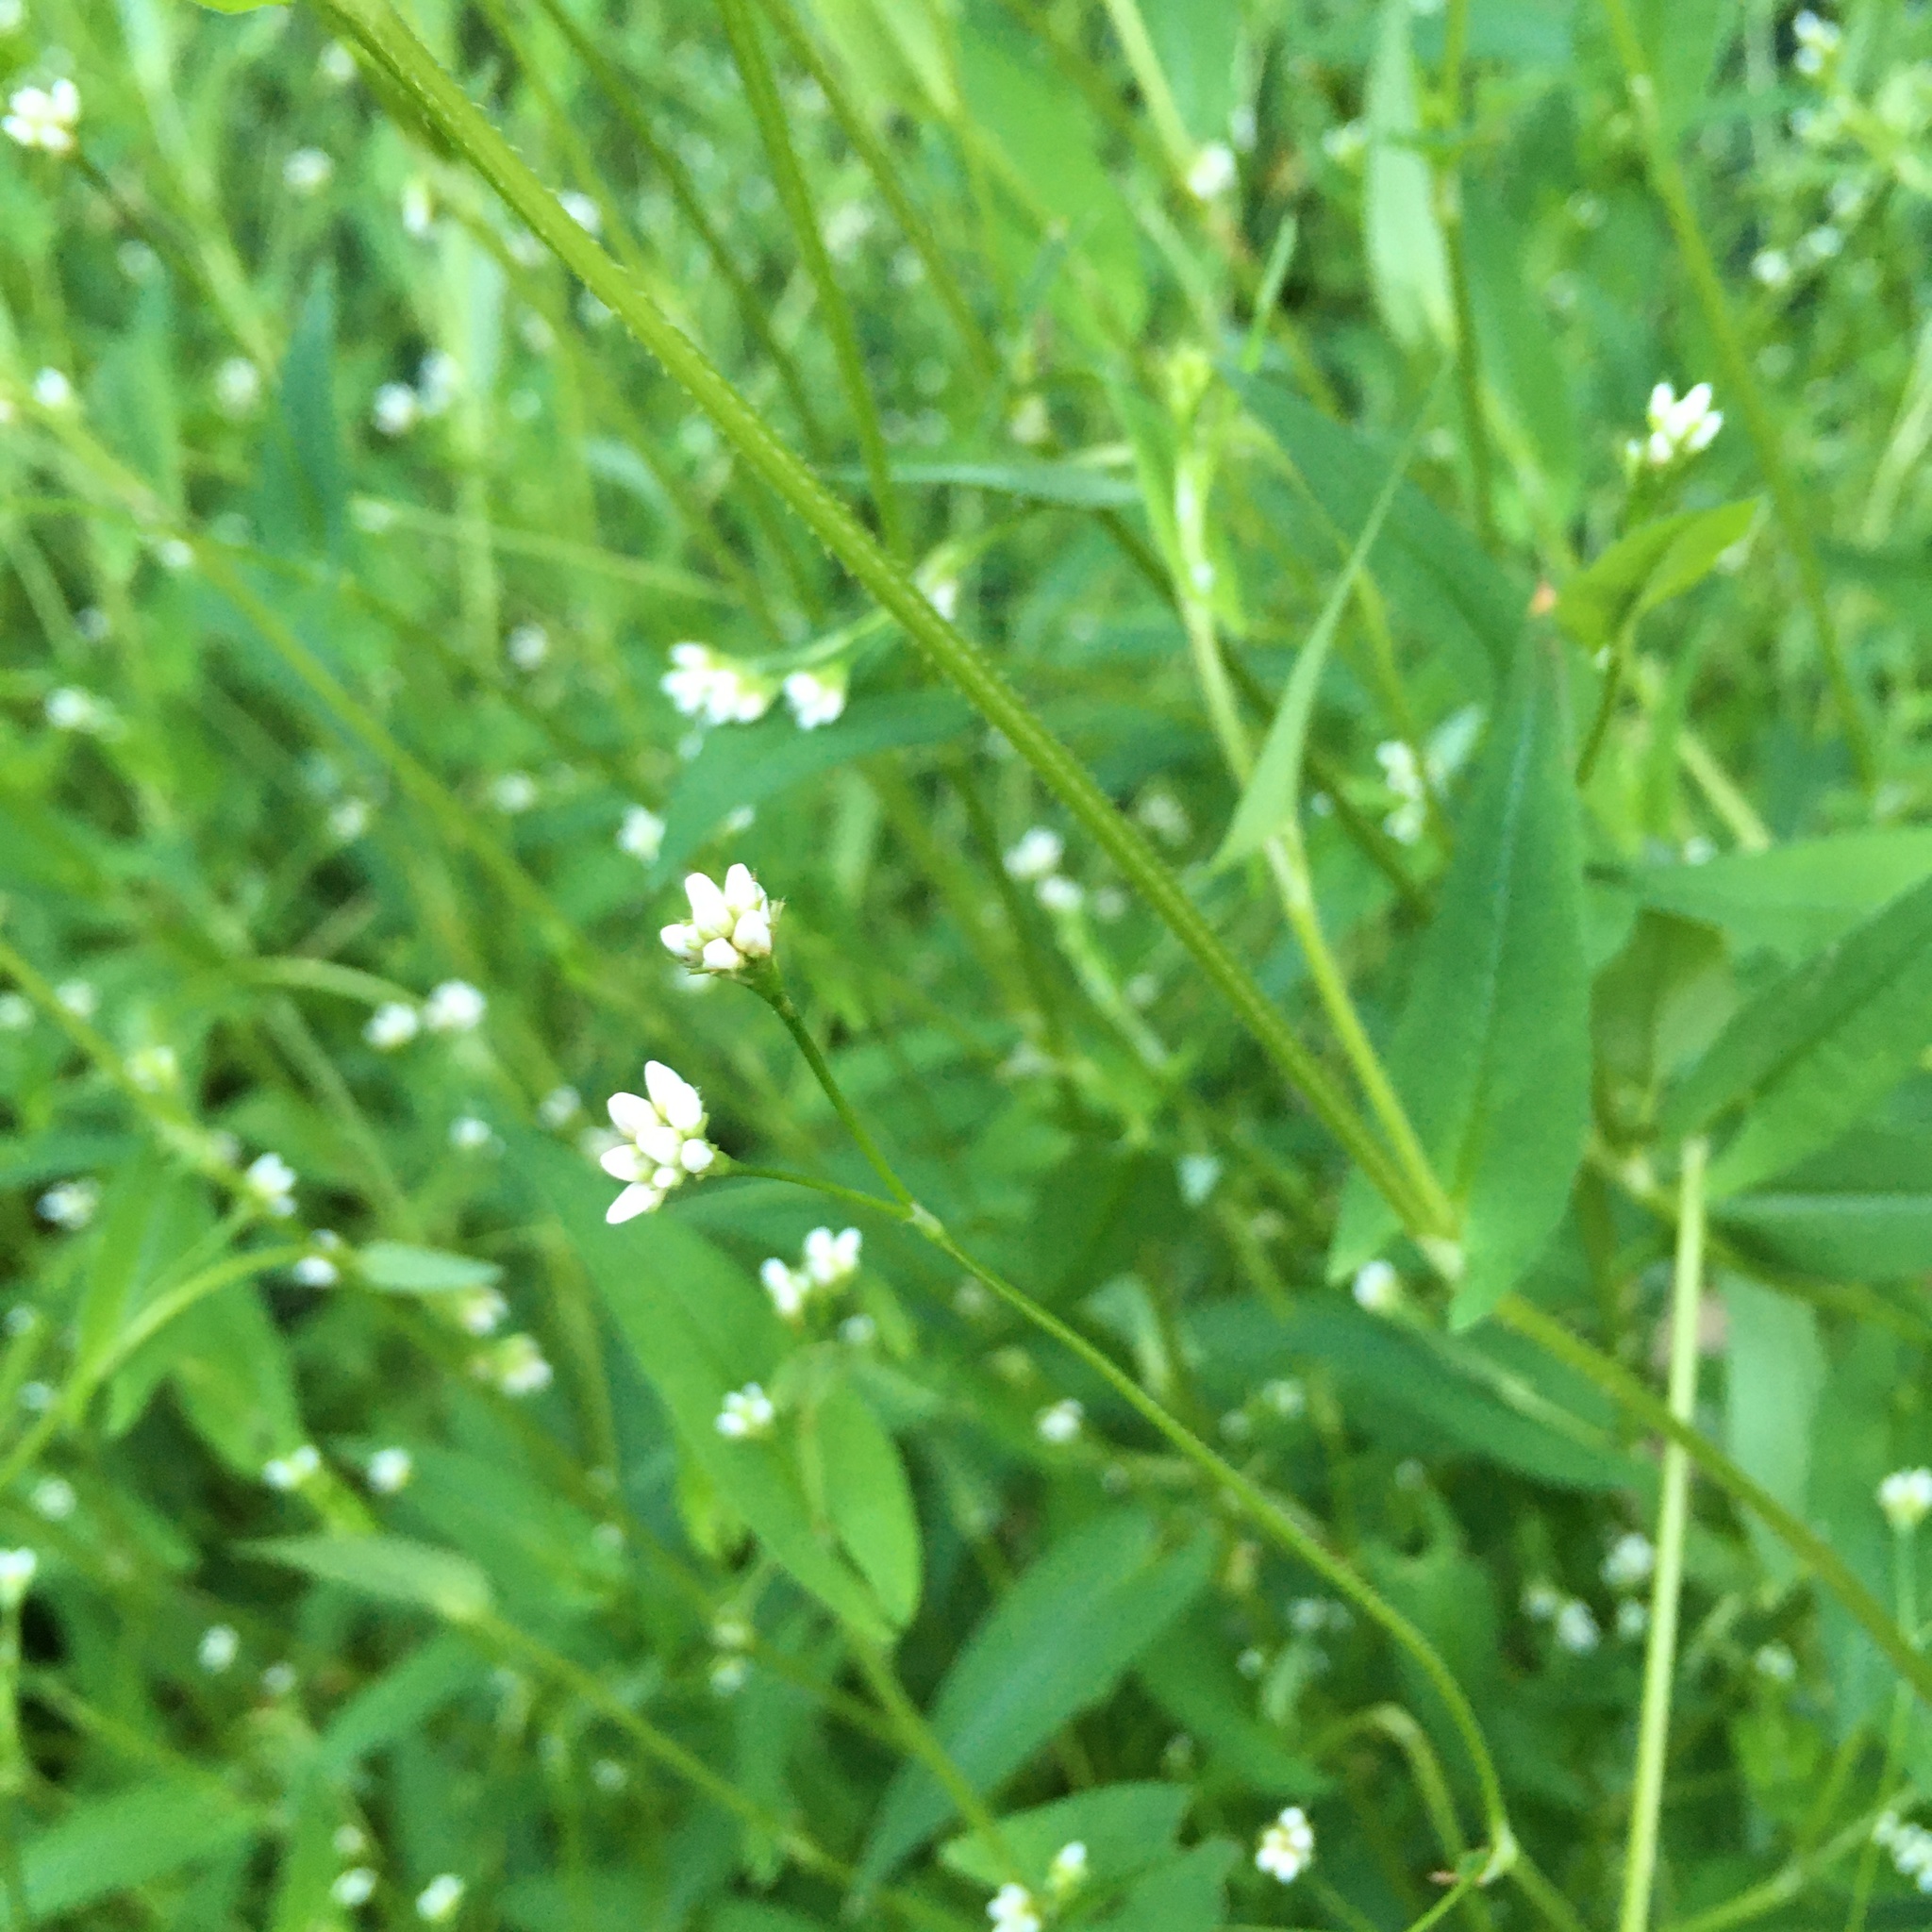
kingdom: Plantae
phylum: Tracheophyta
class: Magnoliopsida
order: Caryophyllales
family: Polygonaceae
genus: Persicaria
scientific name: Persicaria sagittata
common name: American tearthumb
